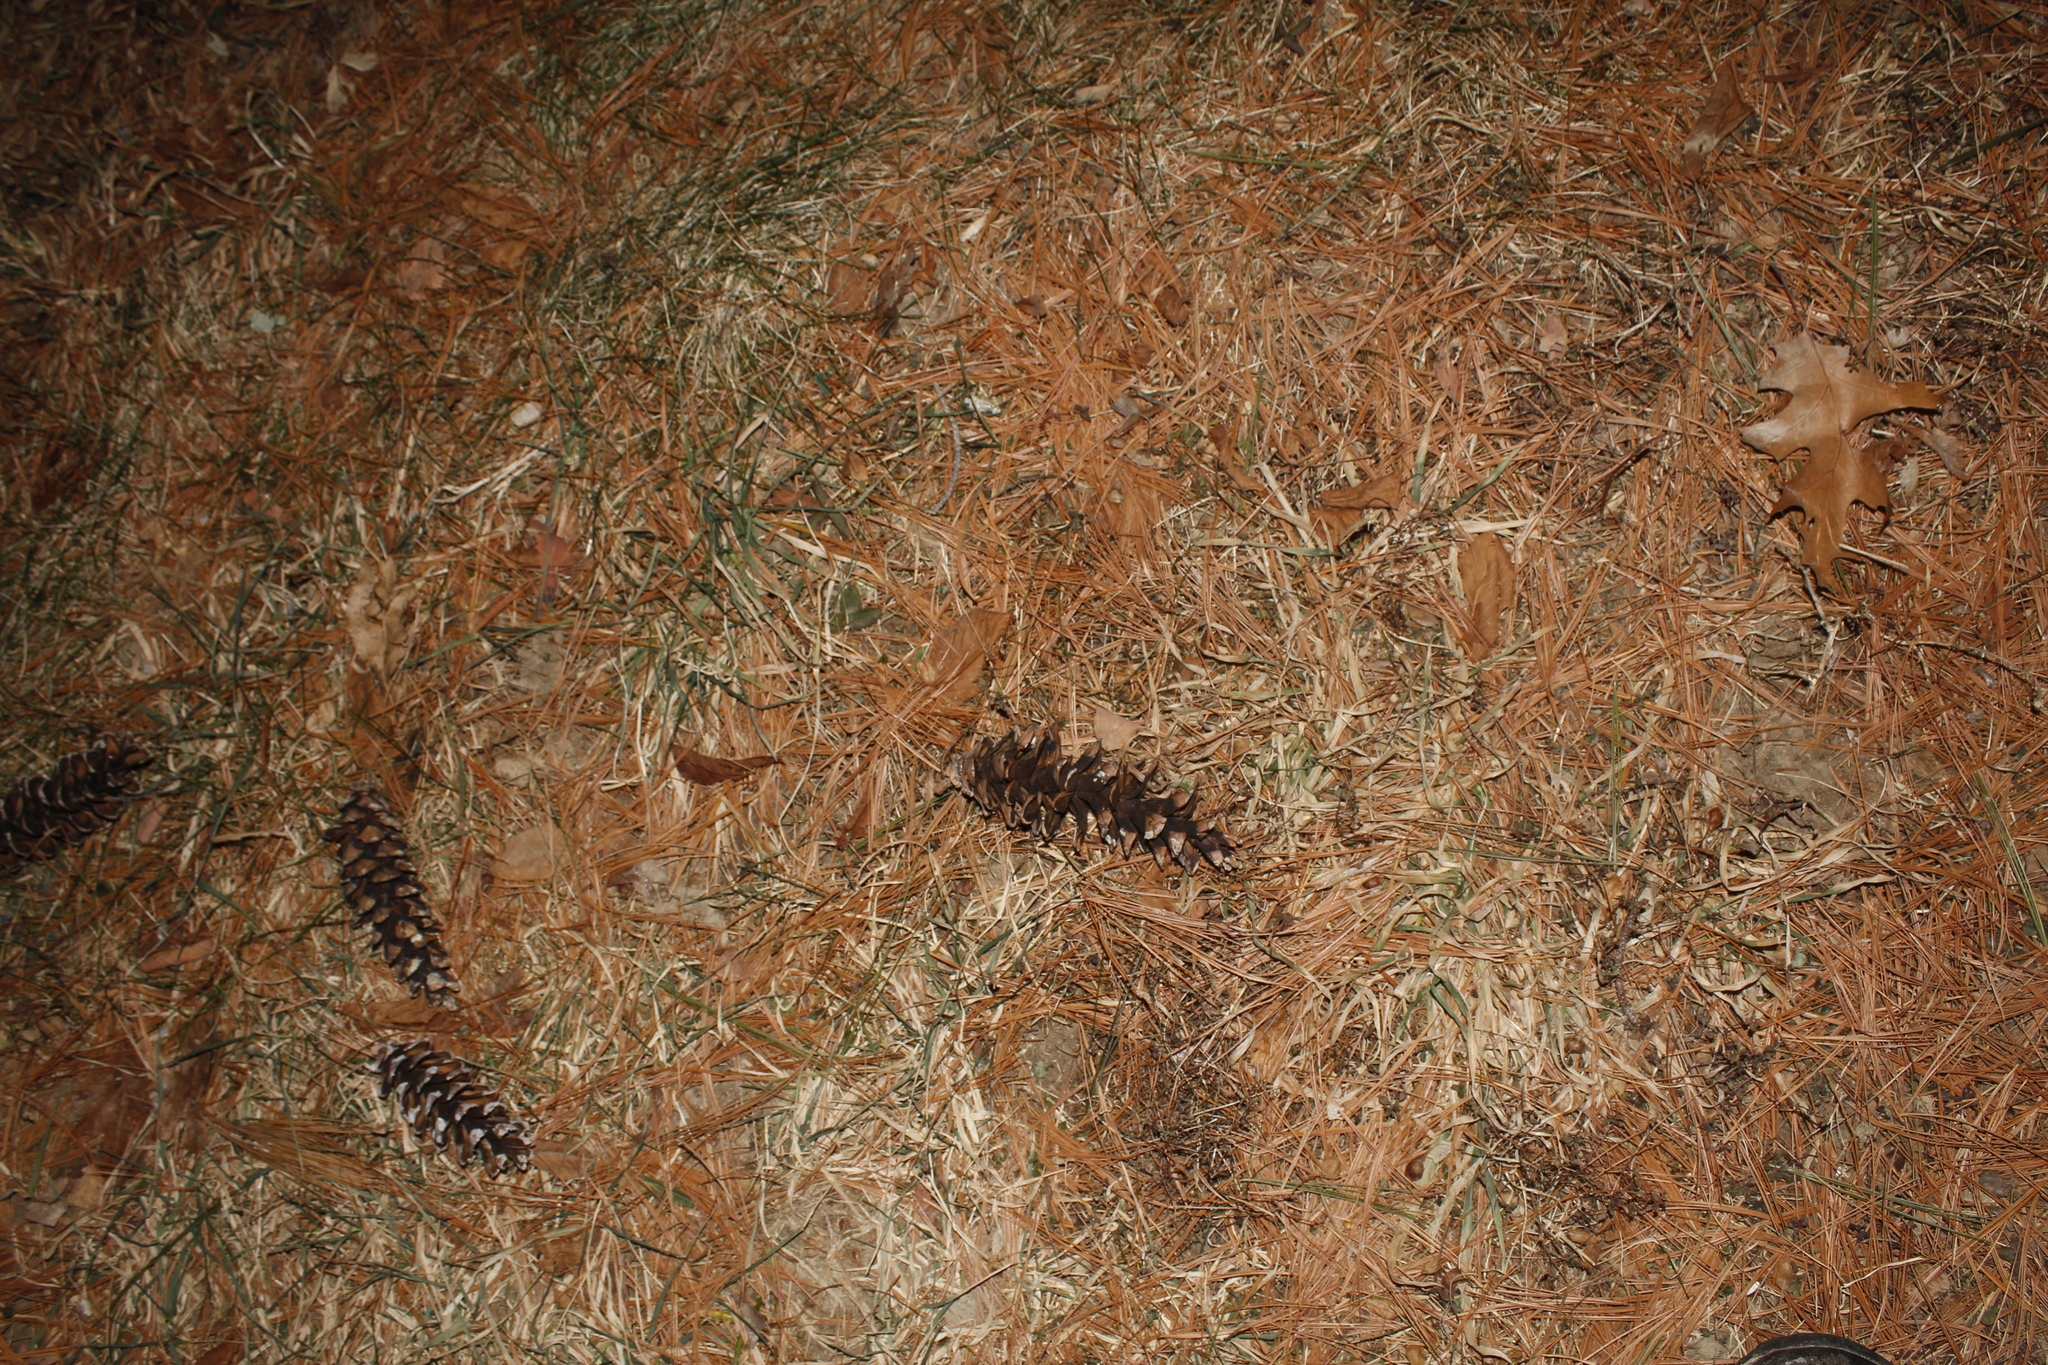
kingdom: Plantae
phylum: Tracheophyta
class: Pinopsida
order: Pinales
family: Pinaceae
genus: Pinus
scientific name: Pinus strobus
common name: Weymouth pine
